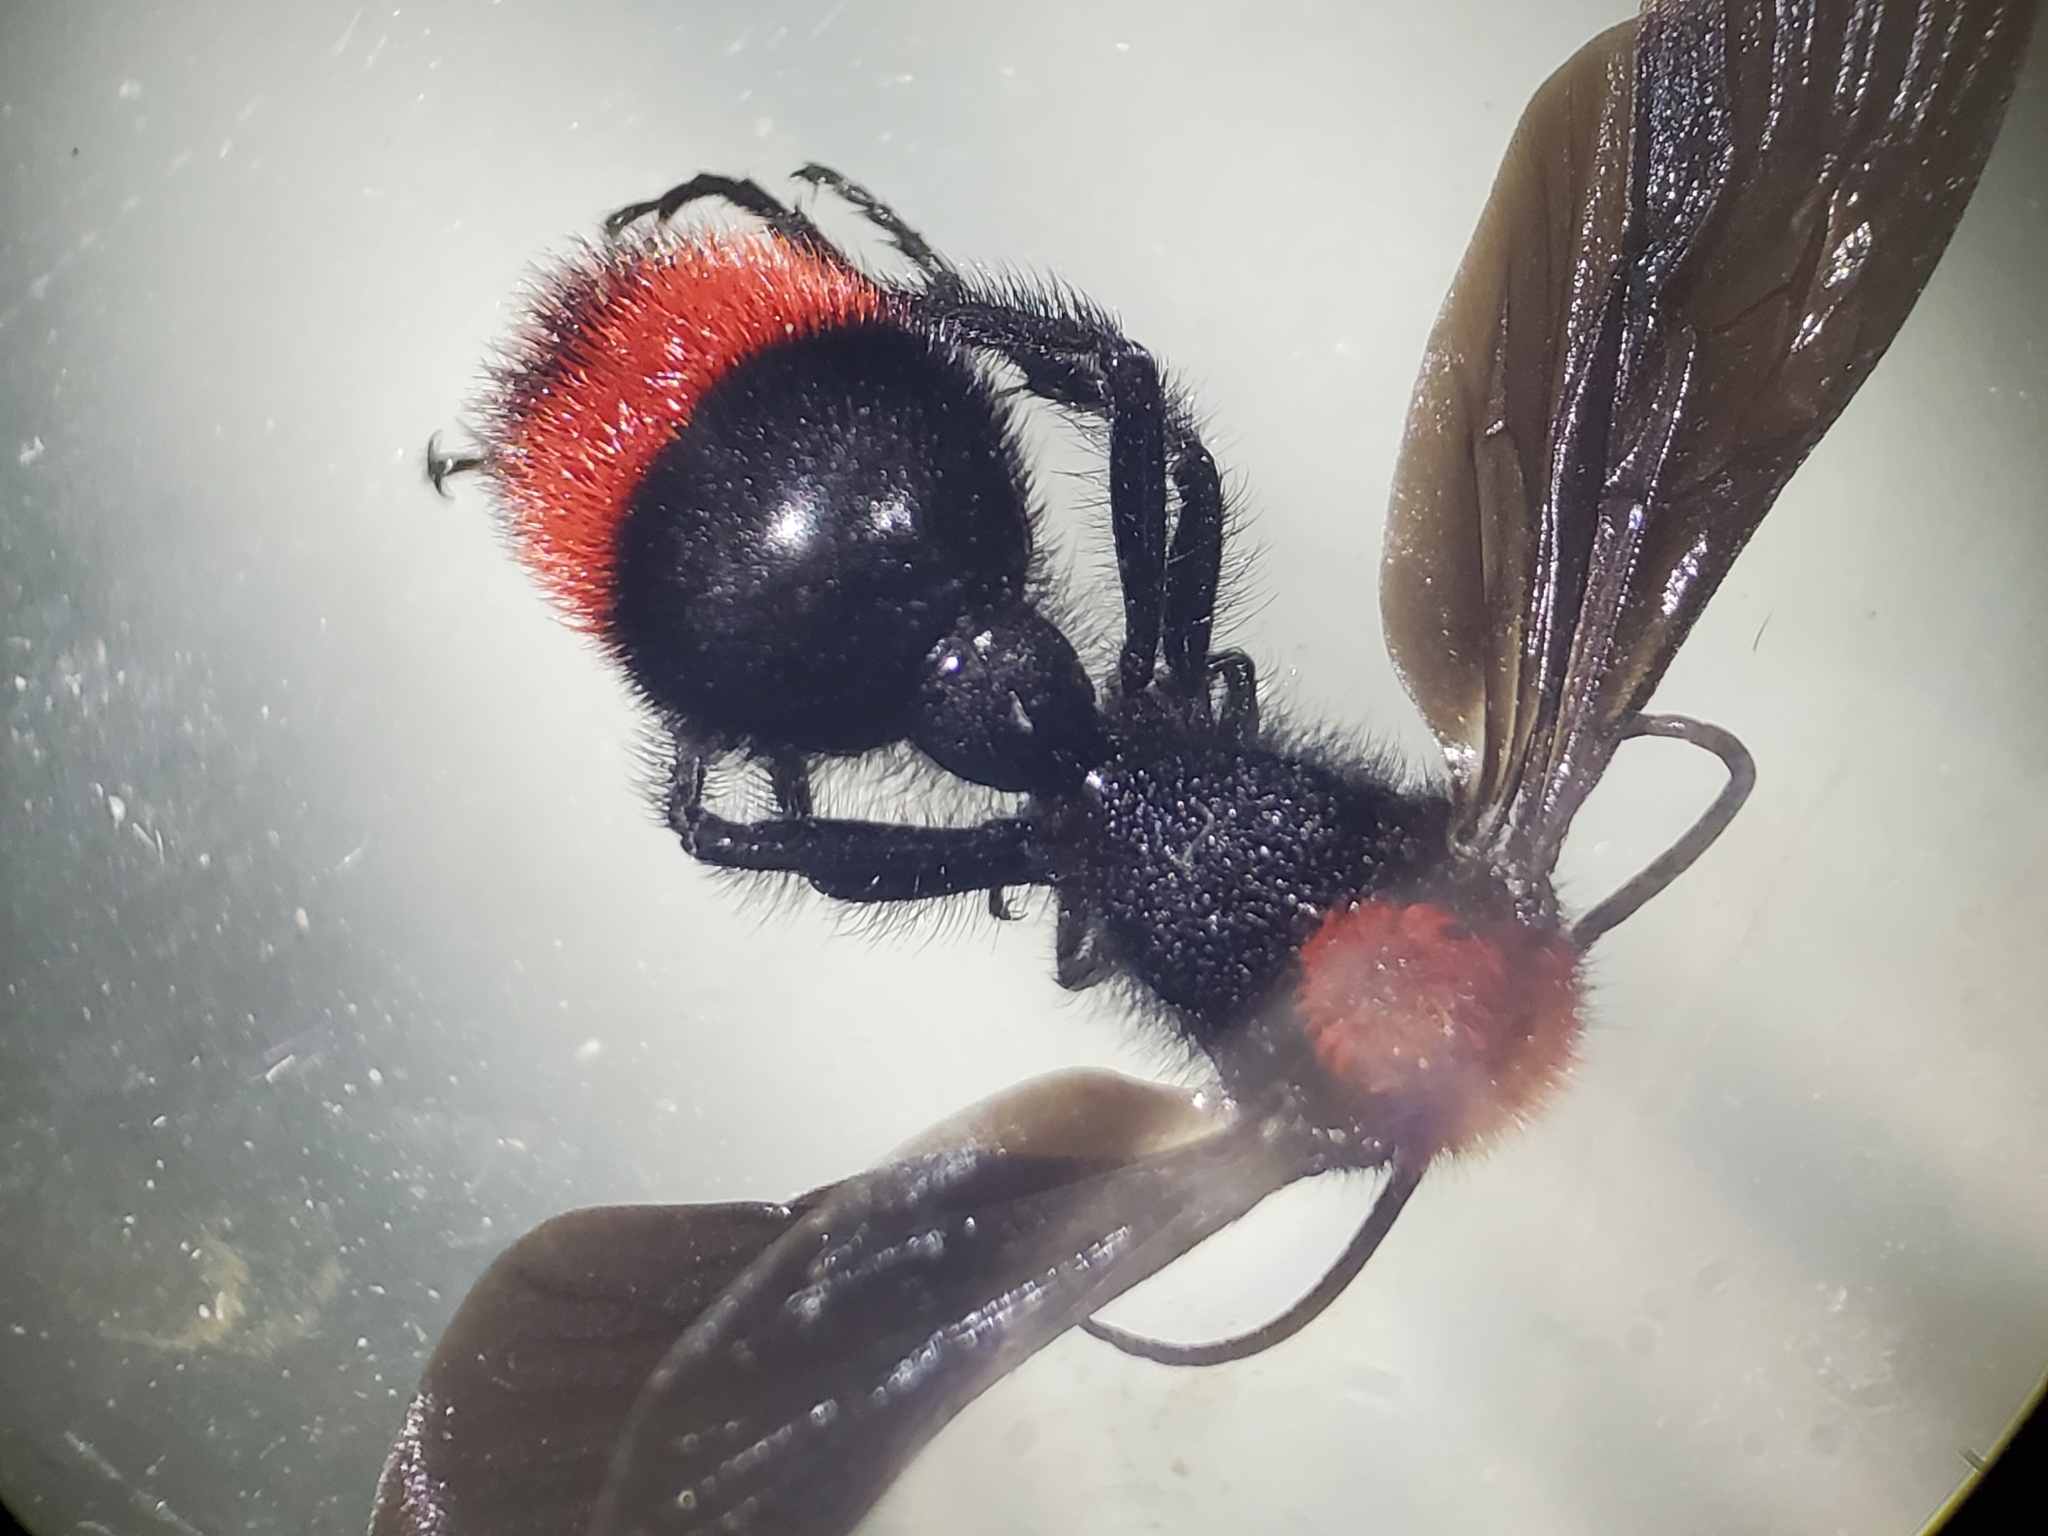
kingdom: Animalia
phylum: Arthropoda
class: Insecta
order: Hymenoptera
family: Mutillidae
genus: Dasymutilla
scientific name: Dasymutilla occidentalis
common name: Common eastern velvet ant
